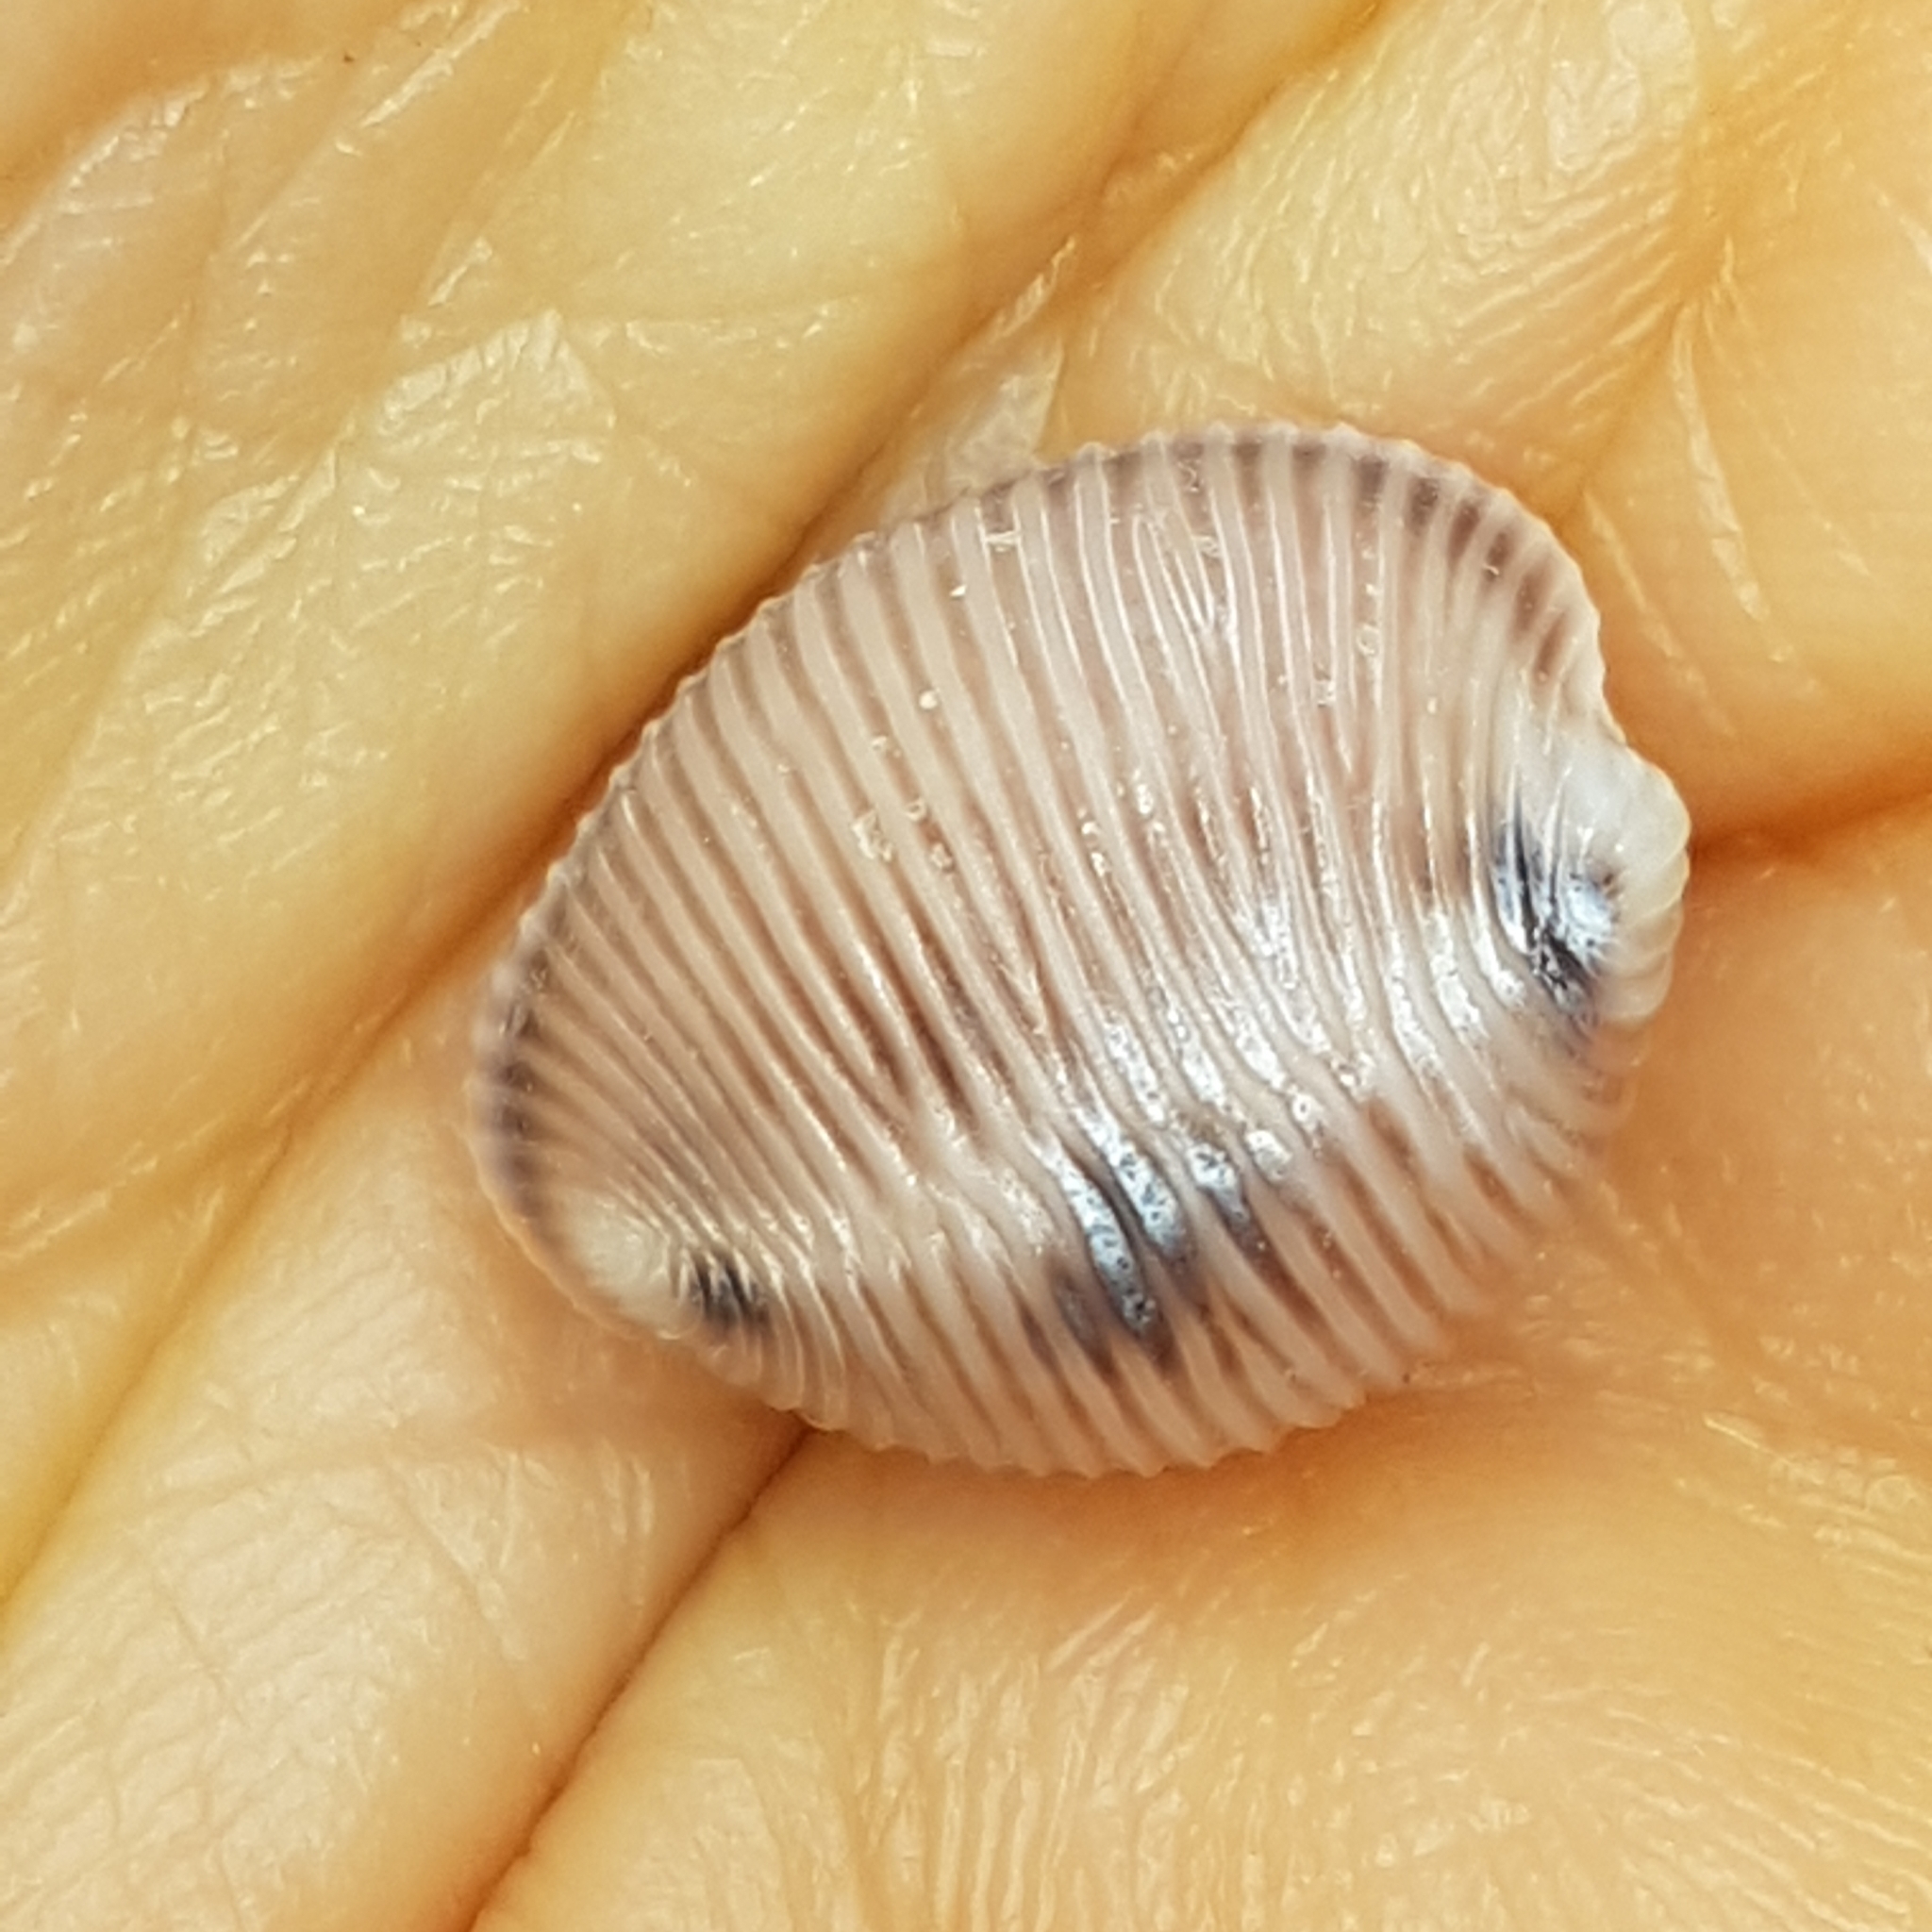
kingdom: Animalia
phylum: Mollusca
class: Gastropoda
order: Littorinimorpha
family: Triviidae
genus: Trivia
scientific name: Trivia monacha
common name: Spotted cowrie
